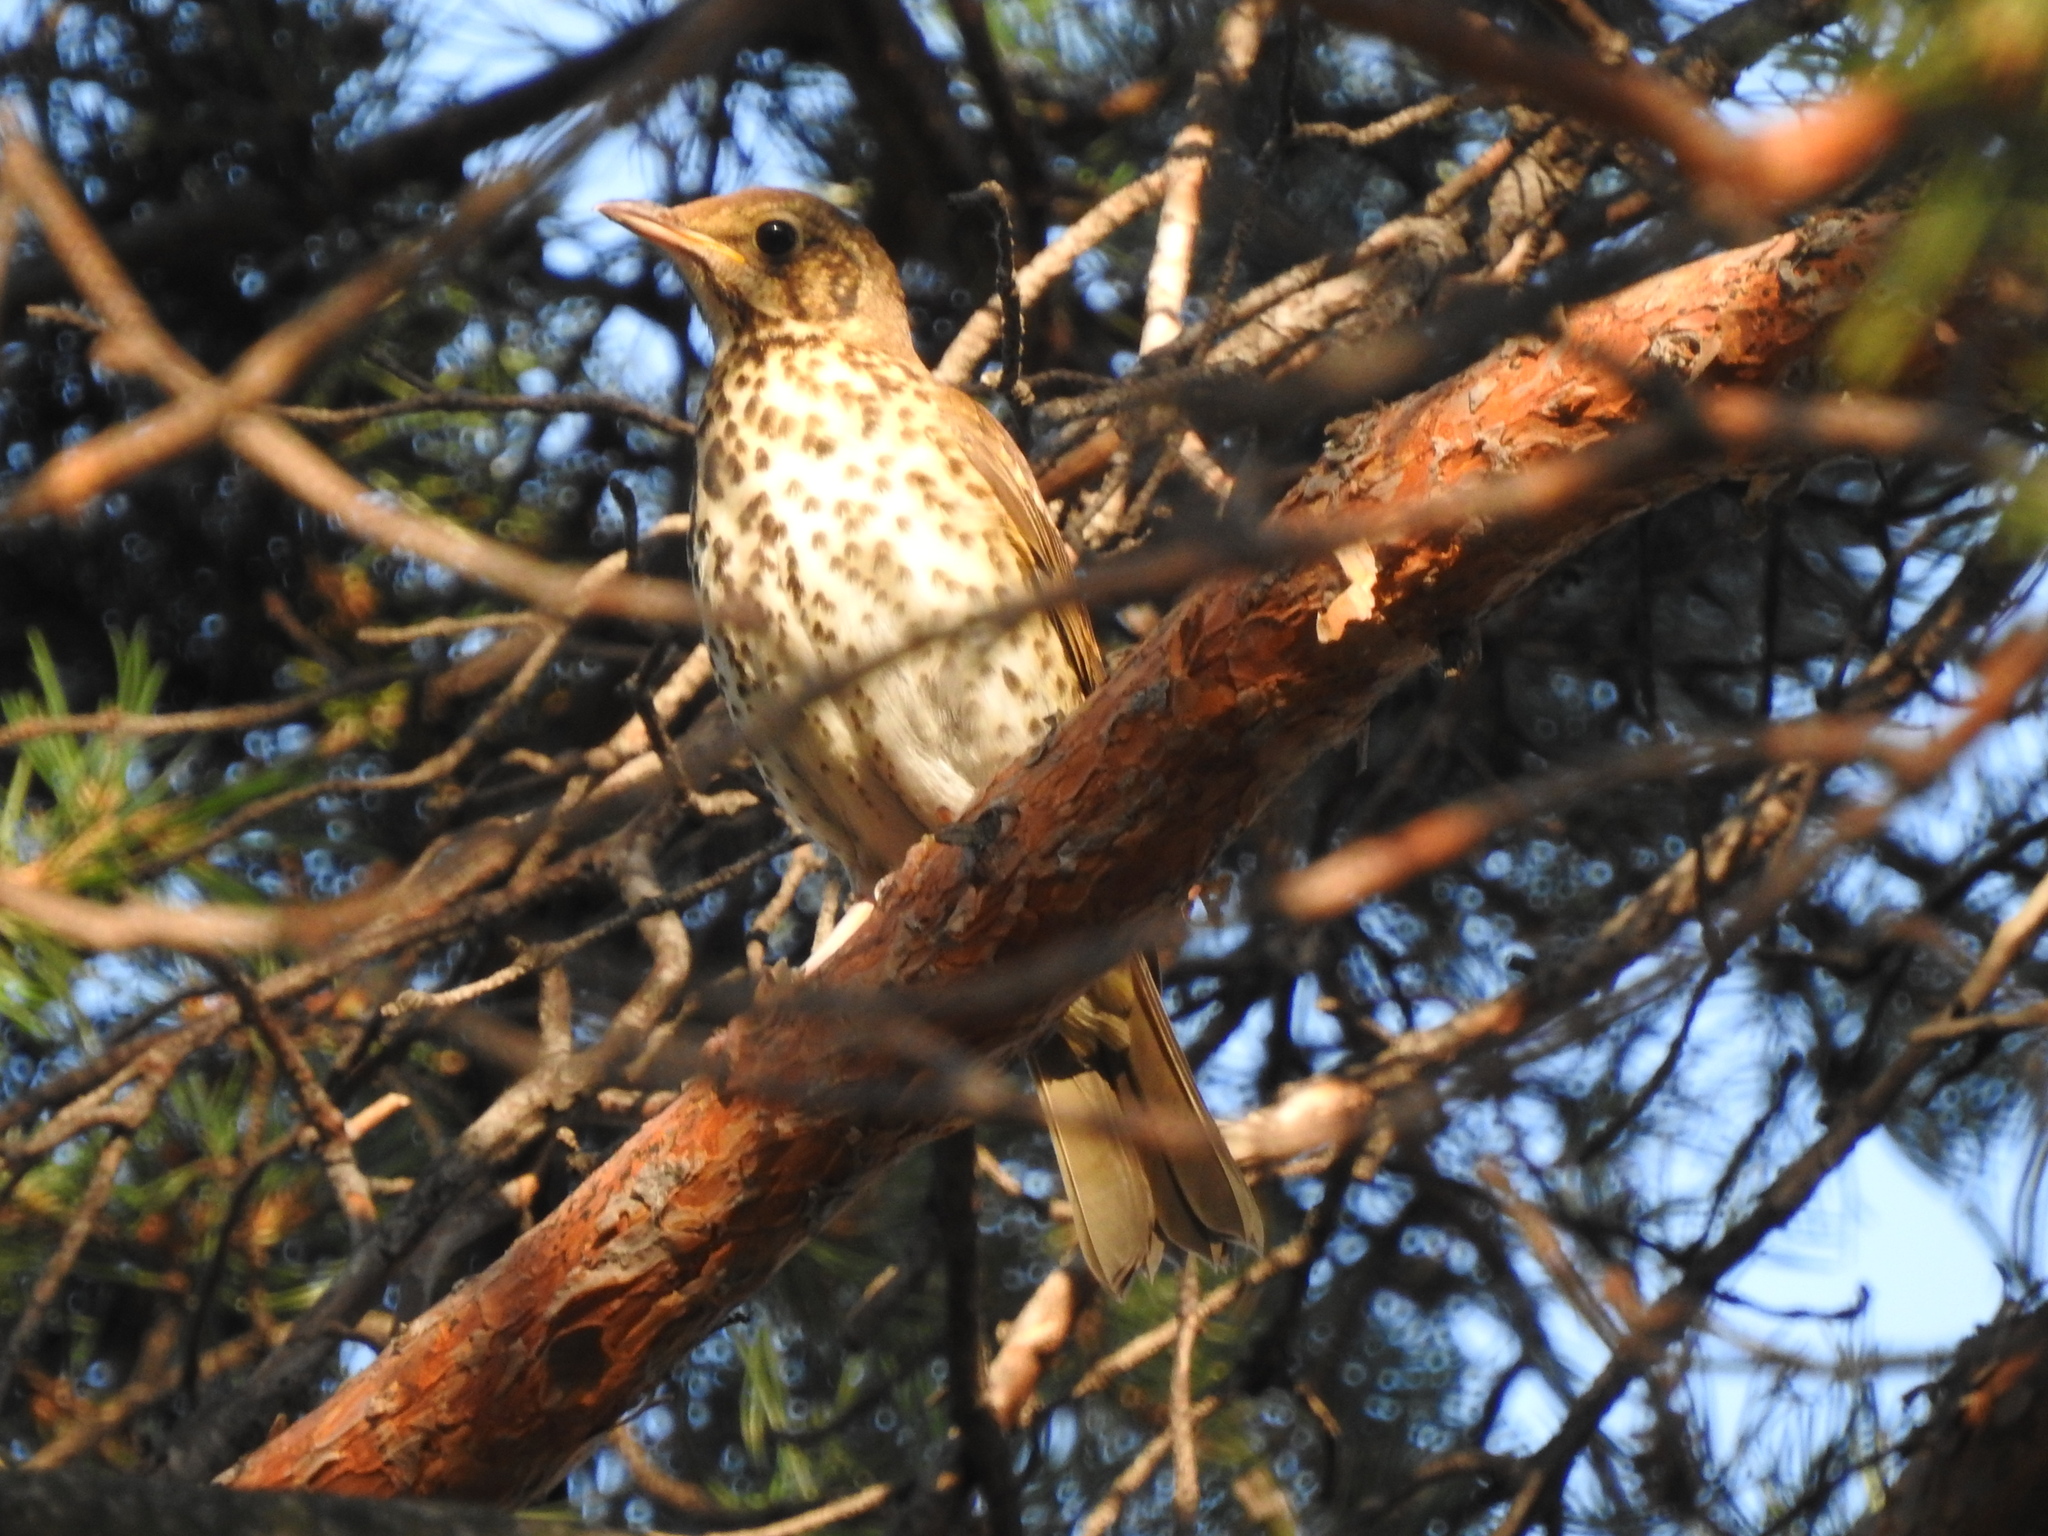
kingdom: Animalia
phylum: Chordata
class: Aves
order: Passeriformes
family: Turdidae
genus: Turdus
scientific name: Turdus philomelos
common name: Song thrush
